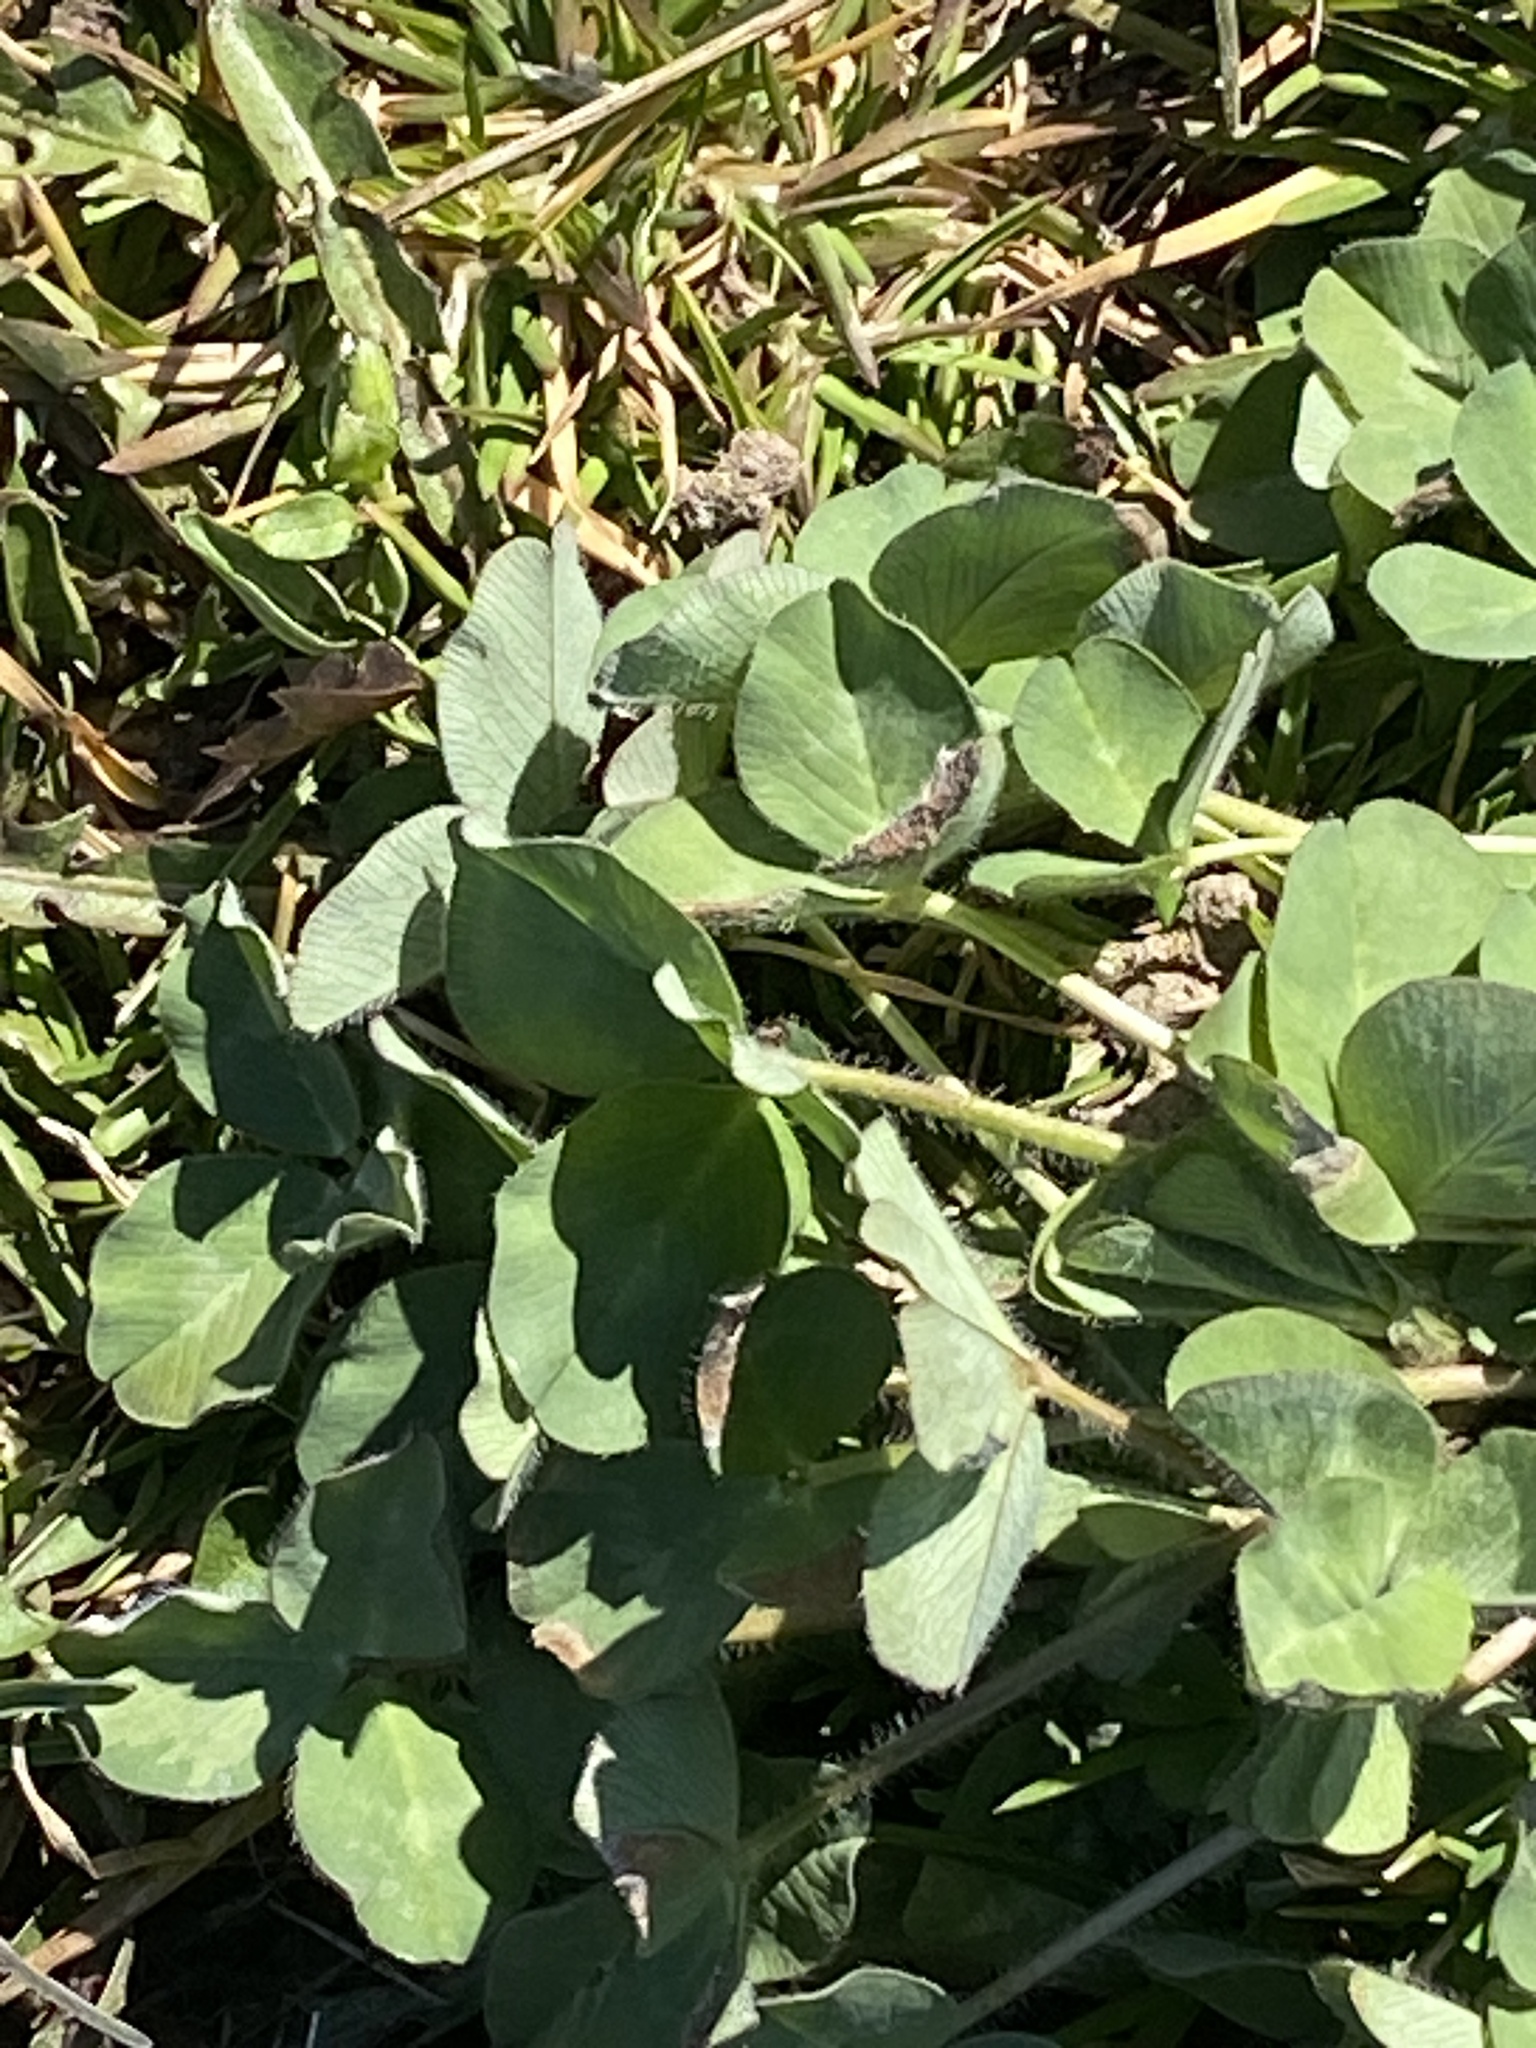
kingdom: Plantae
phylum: Tracheophyta
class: Magnoliopsida
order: Fabales
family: Fabaceae
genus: Trifolium
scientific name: Trifolium pratense
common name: Red clover
